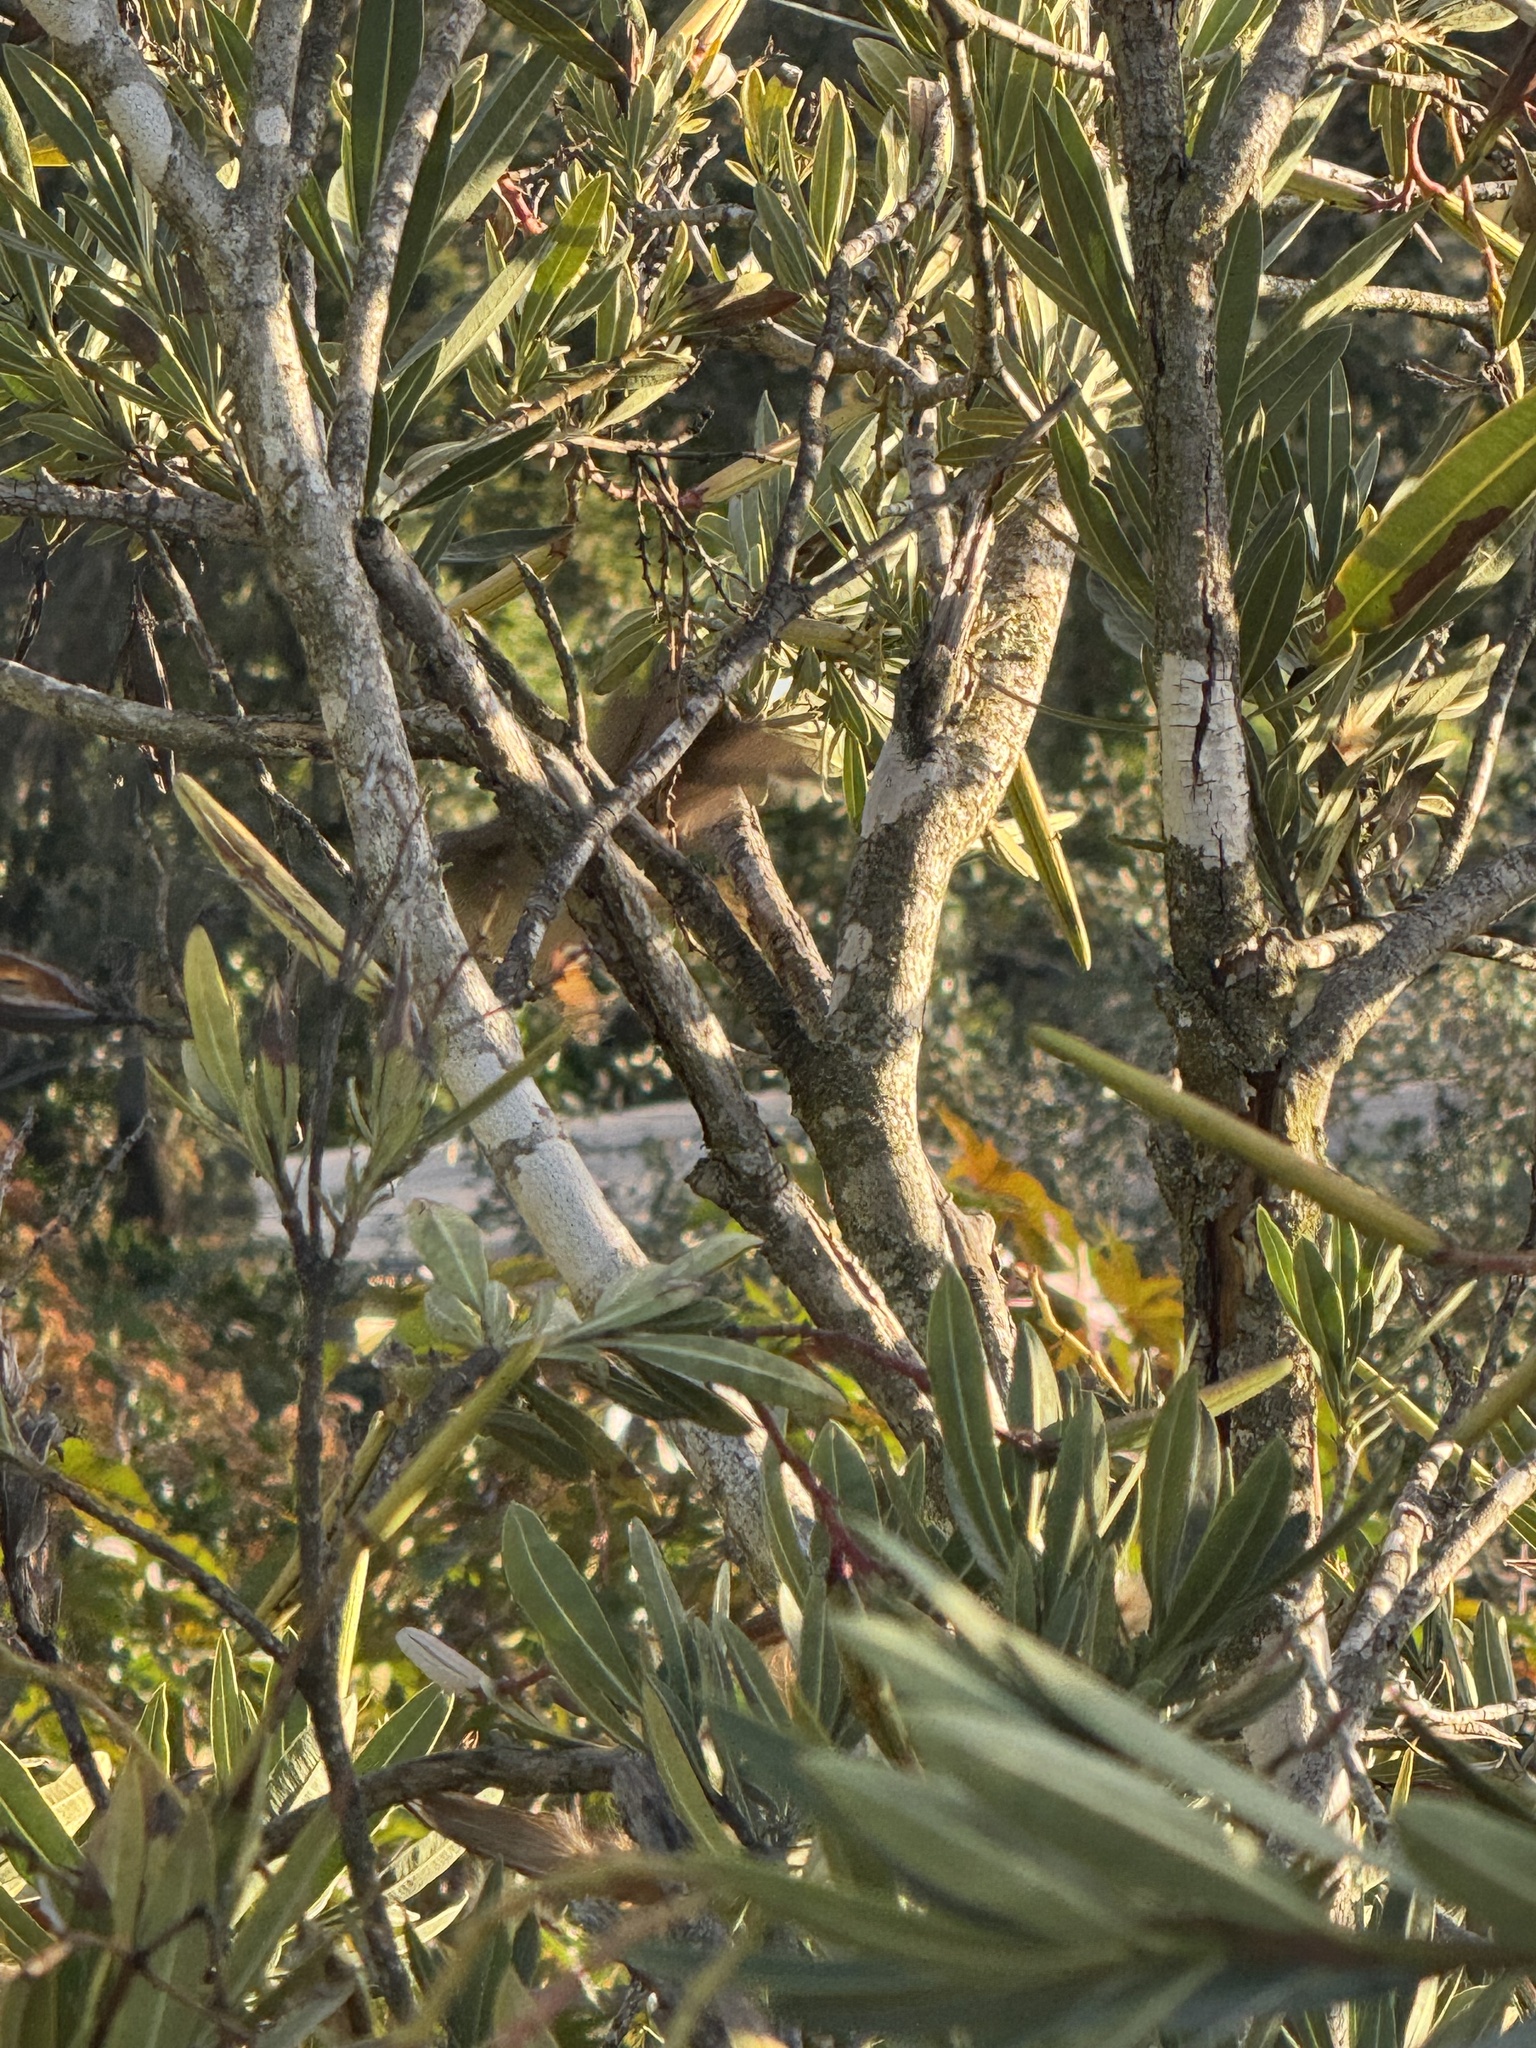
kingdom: Animalia
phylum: Chordata
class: Aves
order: Passeriformes
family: Passerellidae
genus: Zonotrichia
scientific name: Zonotrichia leucophrys
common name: White-crowned sparrow
